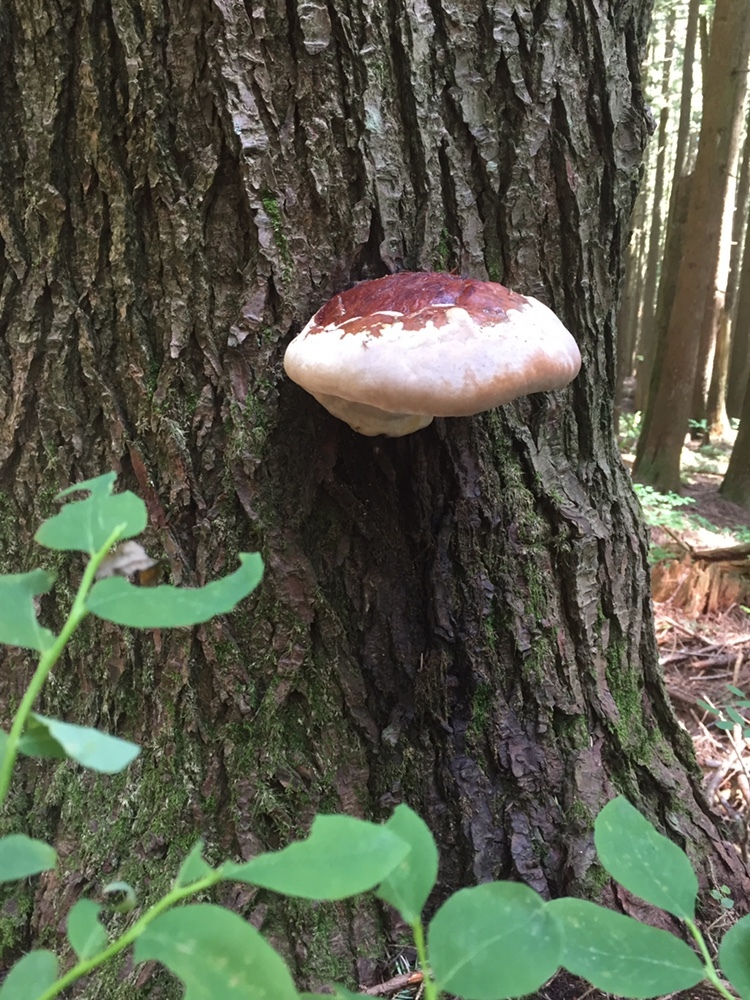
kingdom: Fungi
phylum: Basidiomycota
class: Agaricomycetes
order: Polyporales
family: Fomitopsidaceae
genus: Fomitopsis
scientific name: Fomitopsis mounceae
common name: Northern red belt
